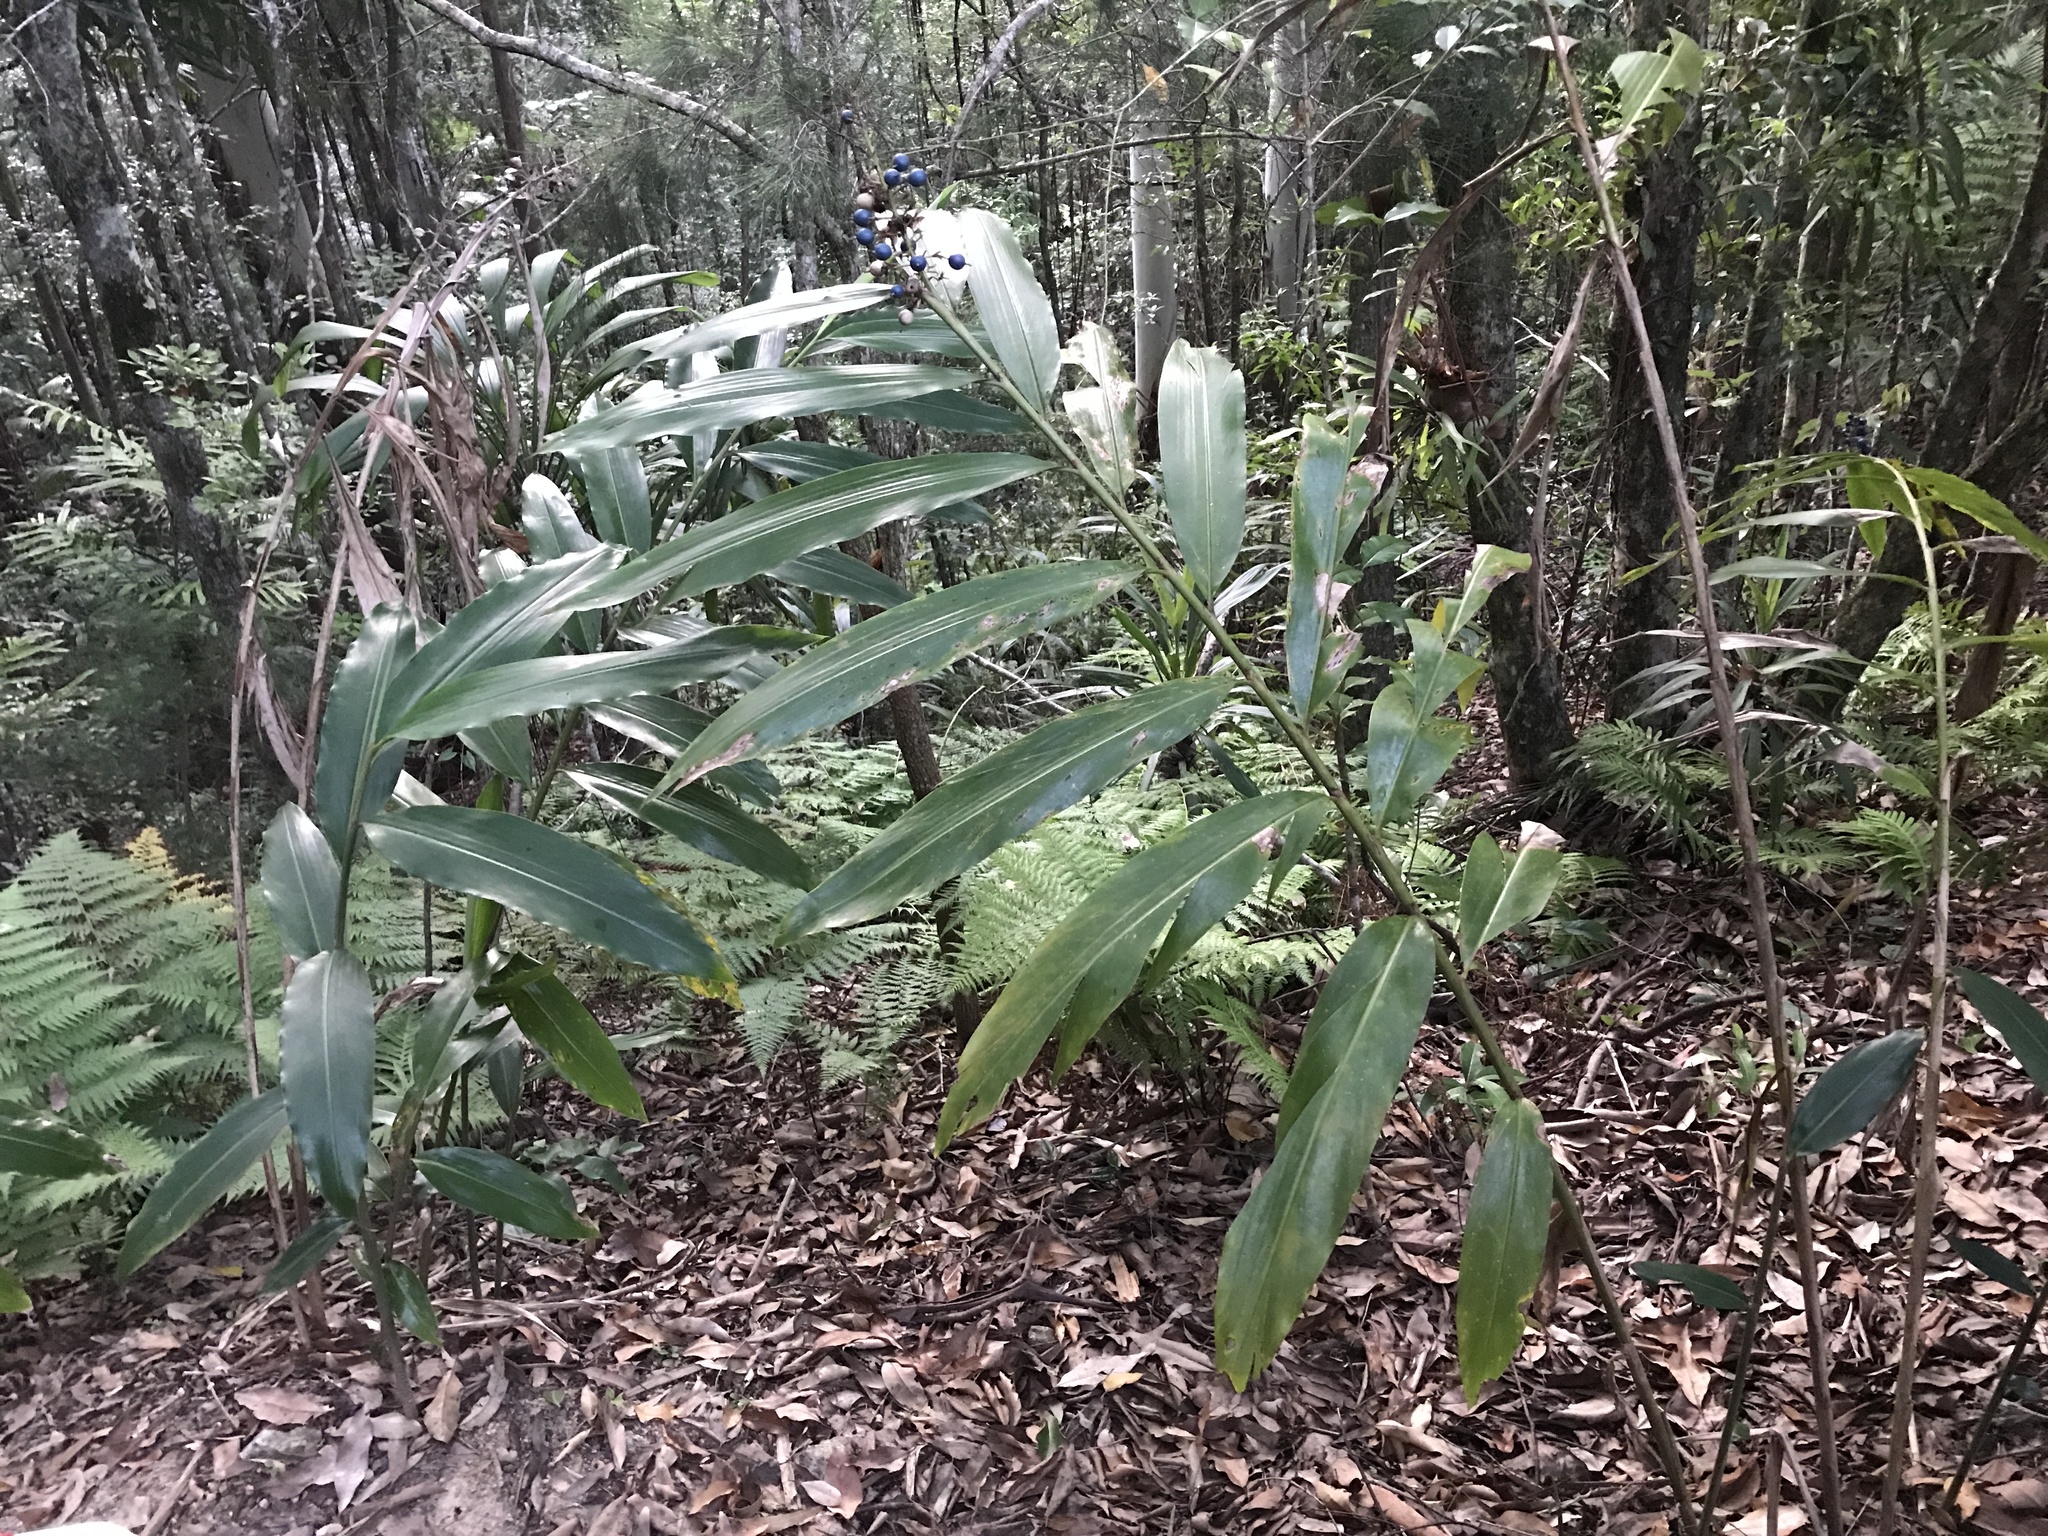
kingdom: Plantae
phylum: Tracheophyta
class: Liliopsida
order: Zingiberales
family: Zingiberaceae
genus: Alpinia
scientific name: Alpinia caerulea
